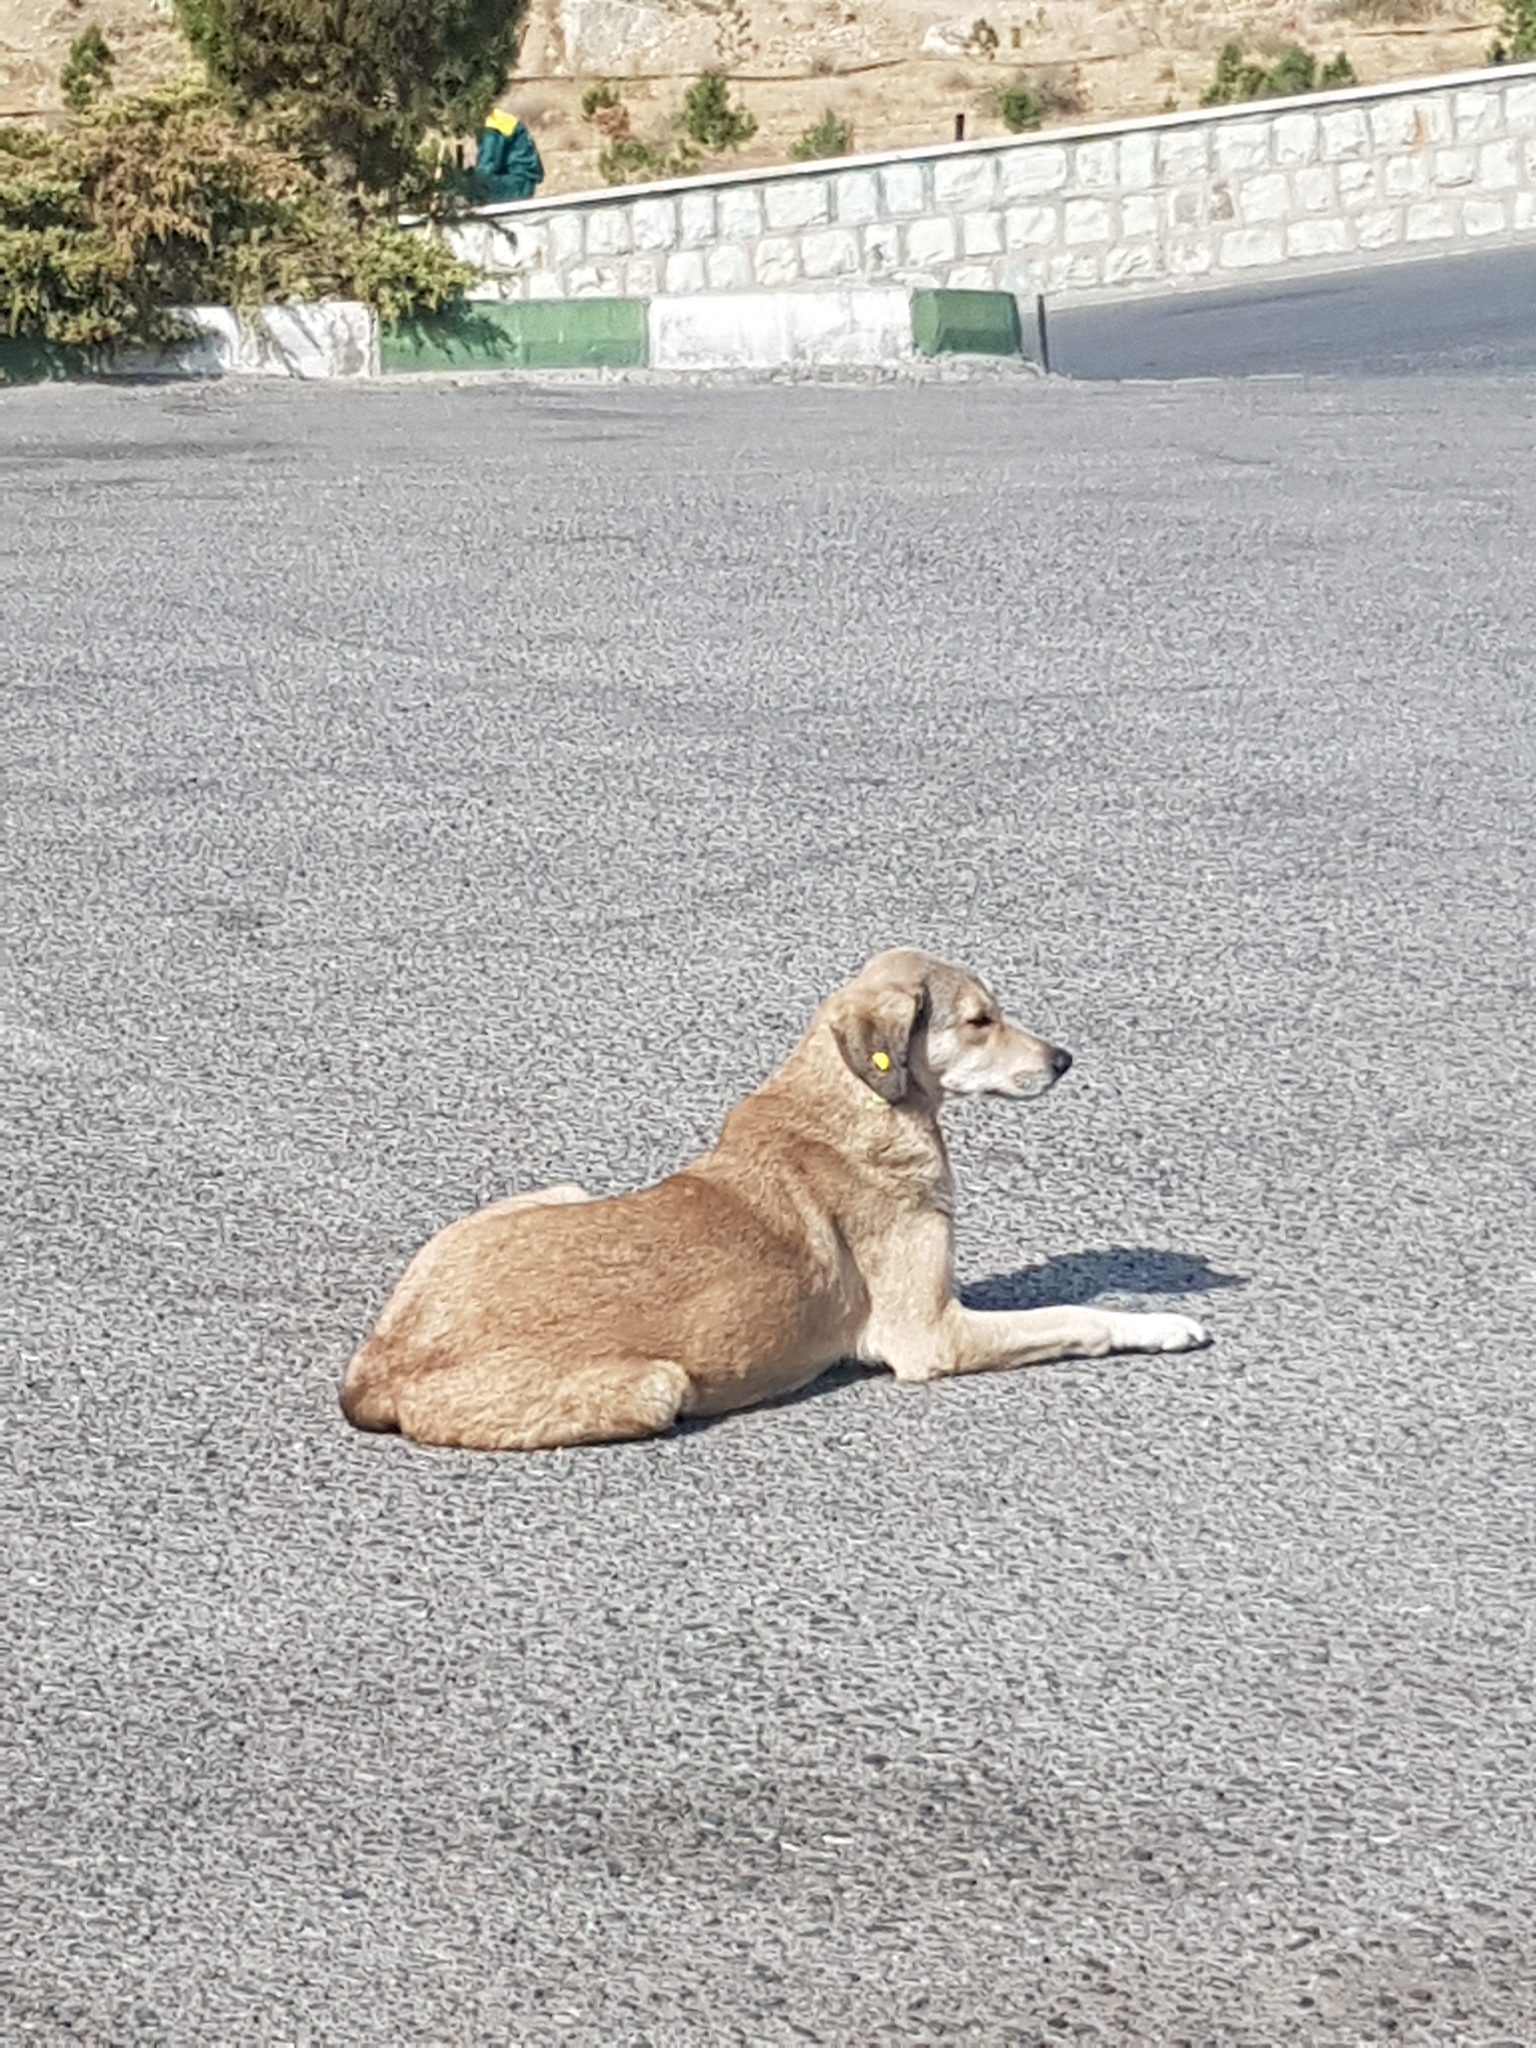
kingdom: Animalia
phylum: Chordata
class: Mammalia
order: Carnivora
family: Canidae
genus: Canis
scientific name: Canis lupus
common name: Gray wolf
